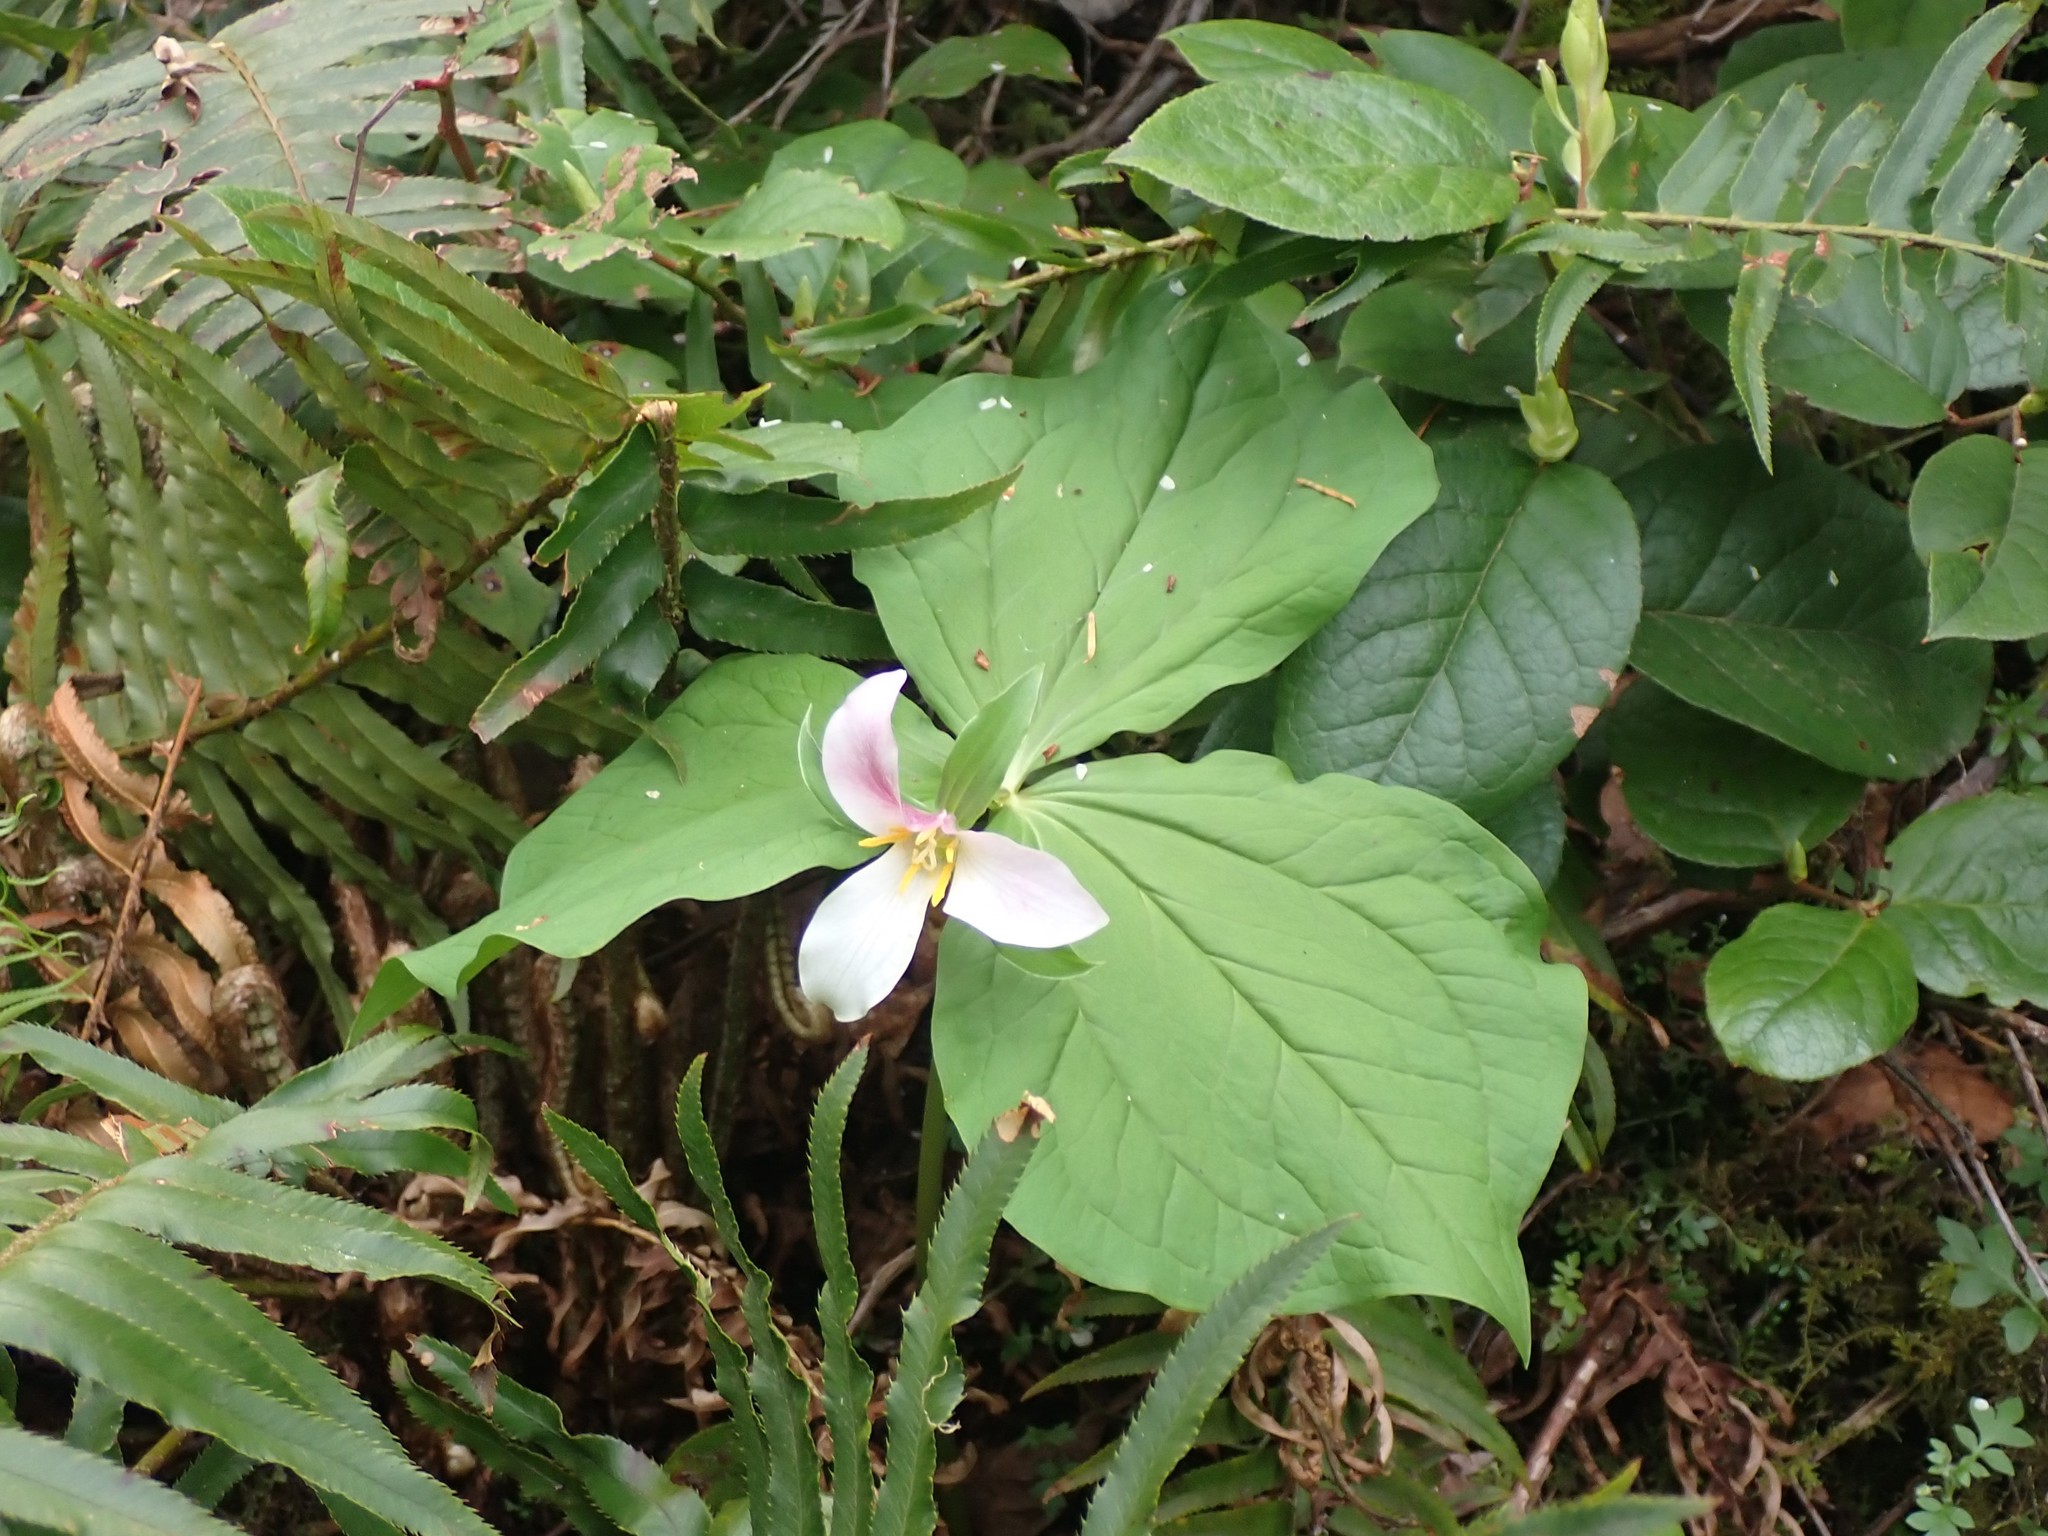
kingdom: Plantae
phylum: Tracheophyta
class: Liliopsida
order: Liliales
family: Melanthiaceae
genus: Trillium
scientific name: Trillium ovatum
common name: Pacific trillium
